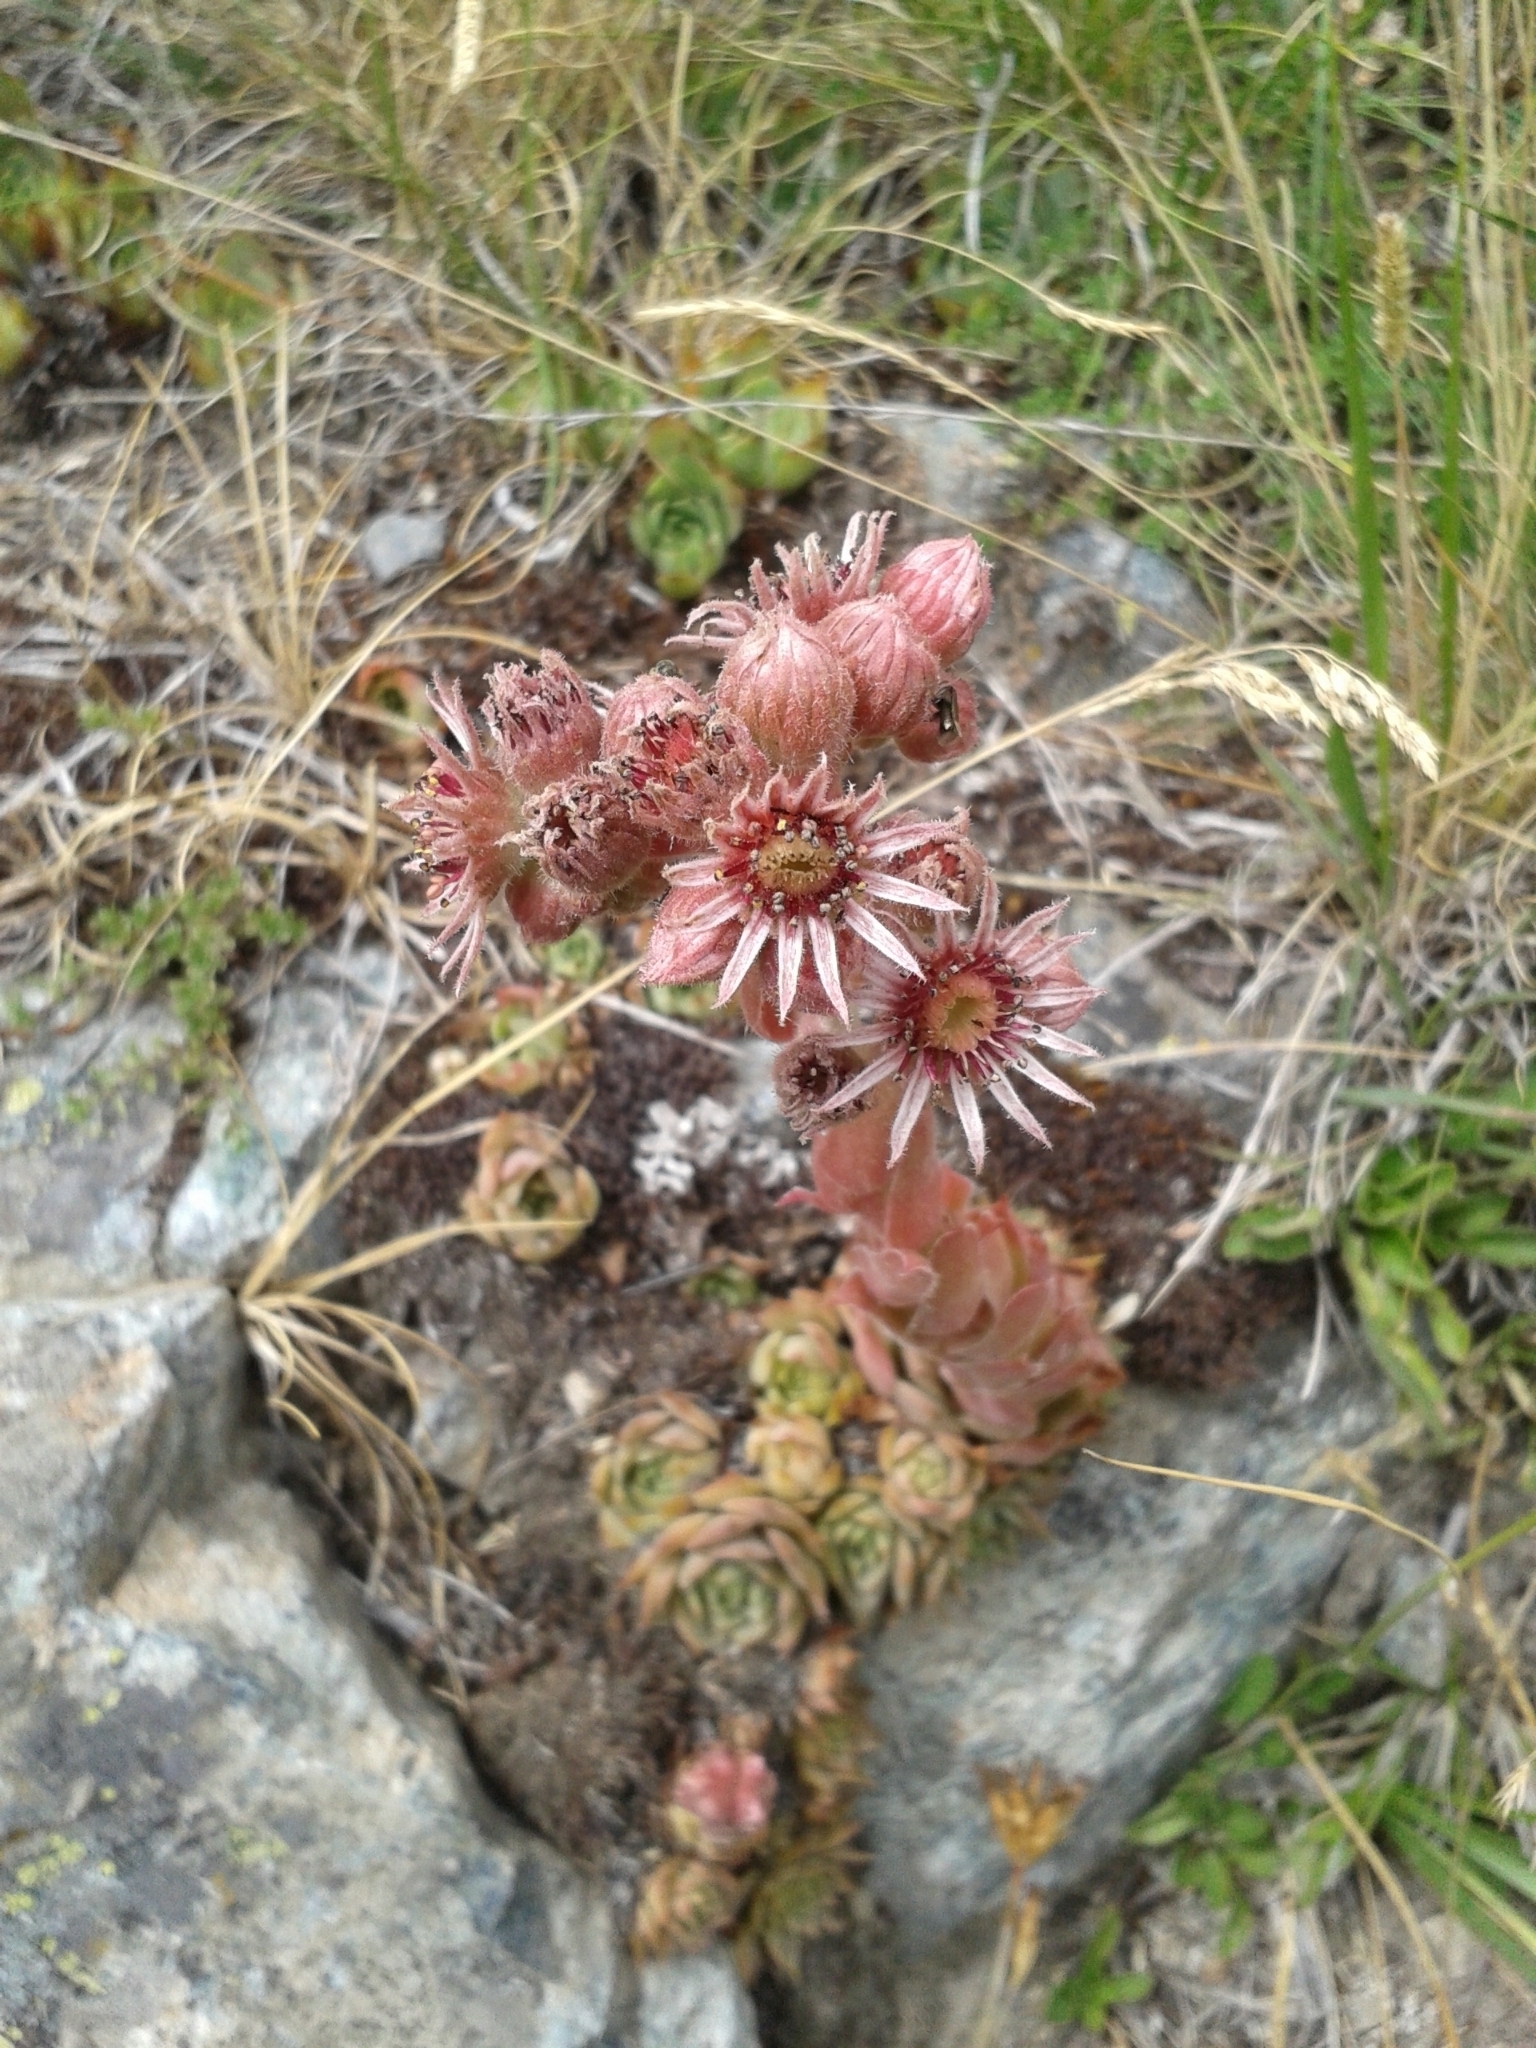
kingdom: Plantae
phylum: Tracheophyta
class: Magnoliopsida
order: Saxifragales
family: Crassulaceae
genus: Sempervivum
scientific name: Sempervivum tectorum
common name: House-leek
